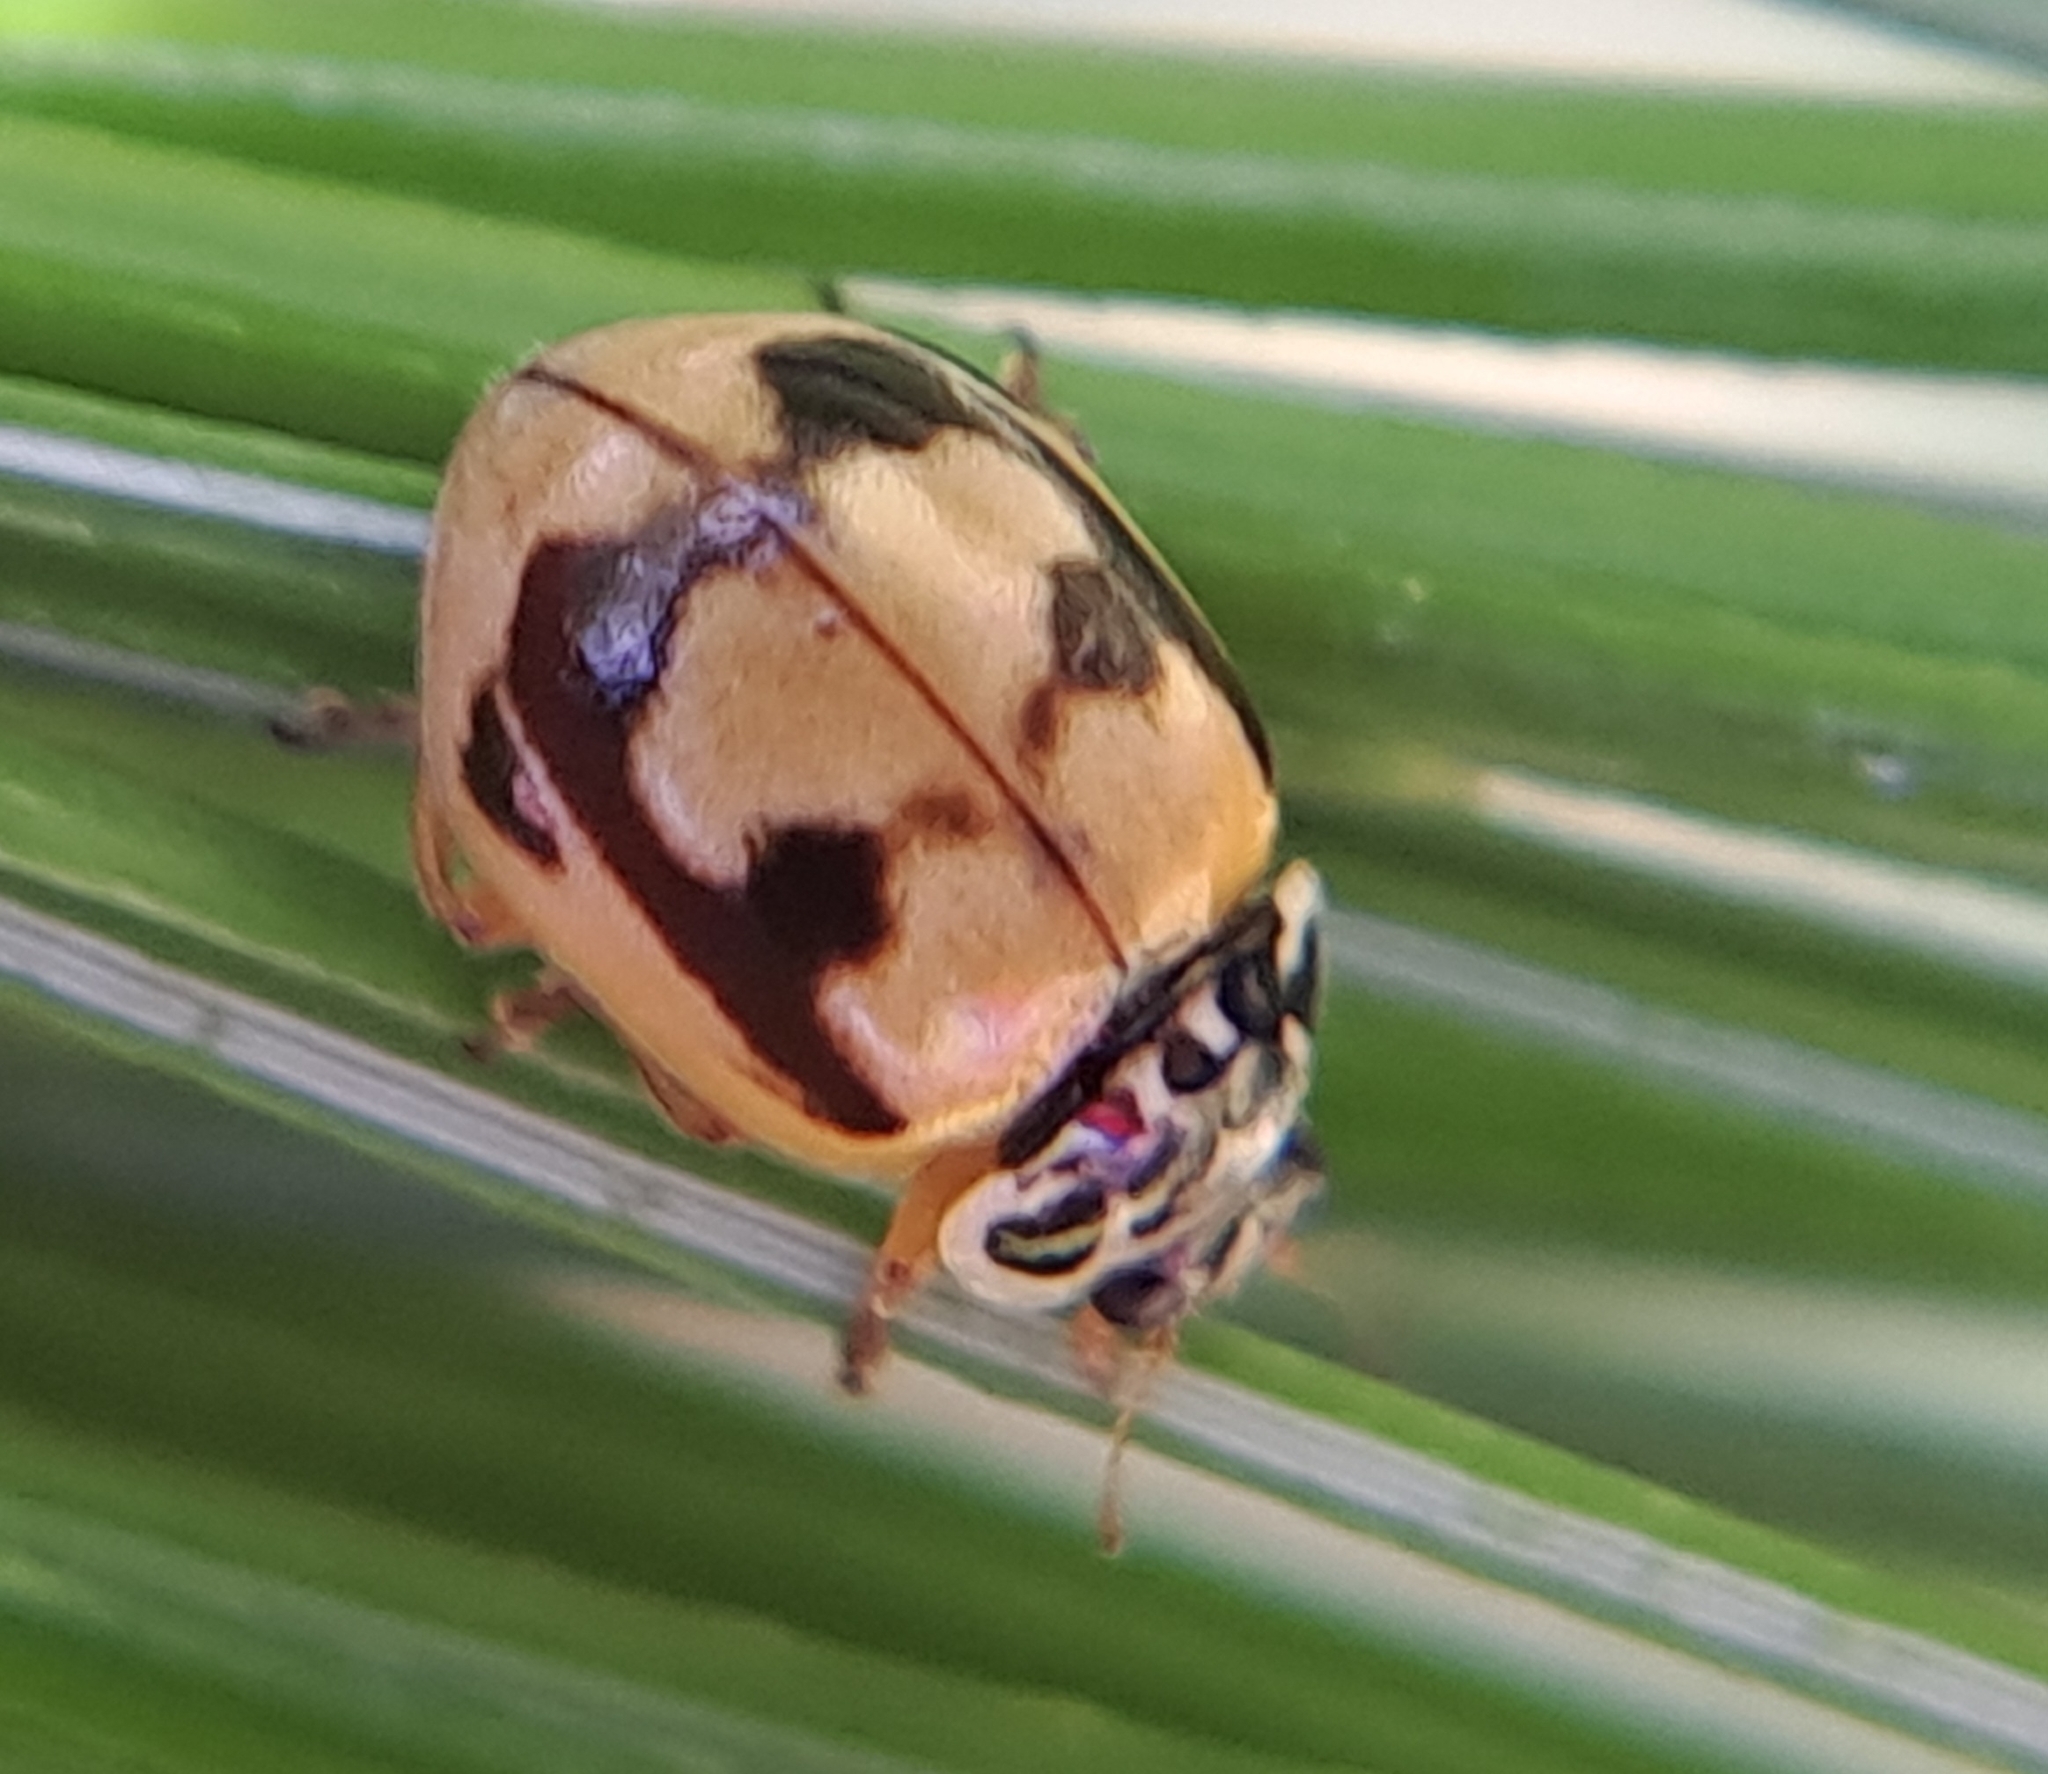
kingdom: Animalia
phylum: Arthropoda
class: Insecta
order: Coleoptera
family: Coccinellidae
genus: Mulsantina
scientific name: Mulsantina picta
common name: Painted ladybird
